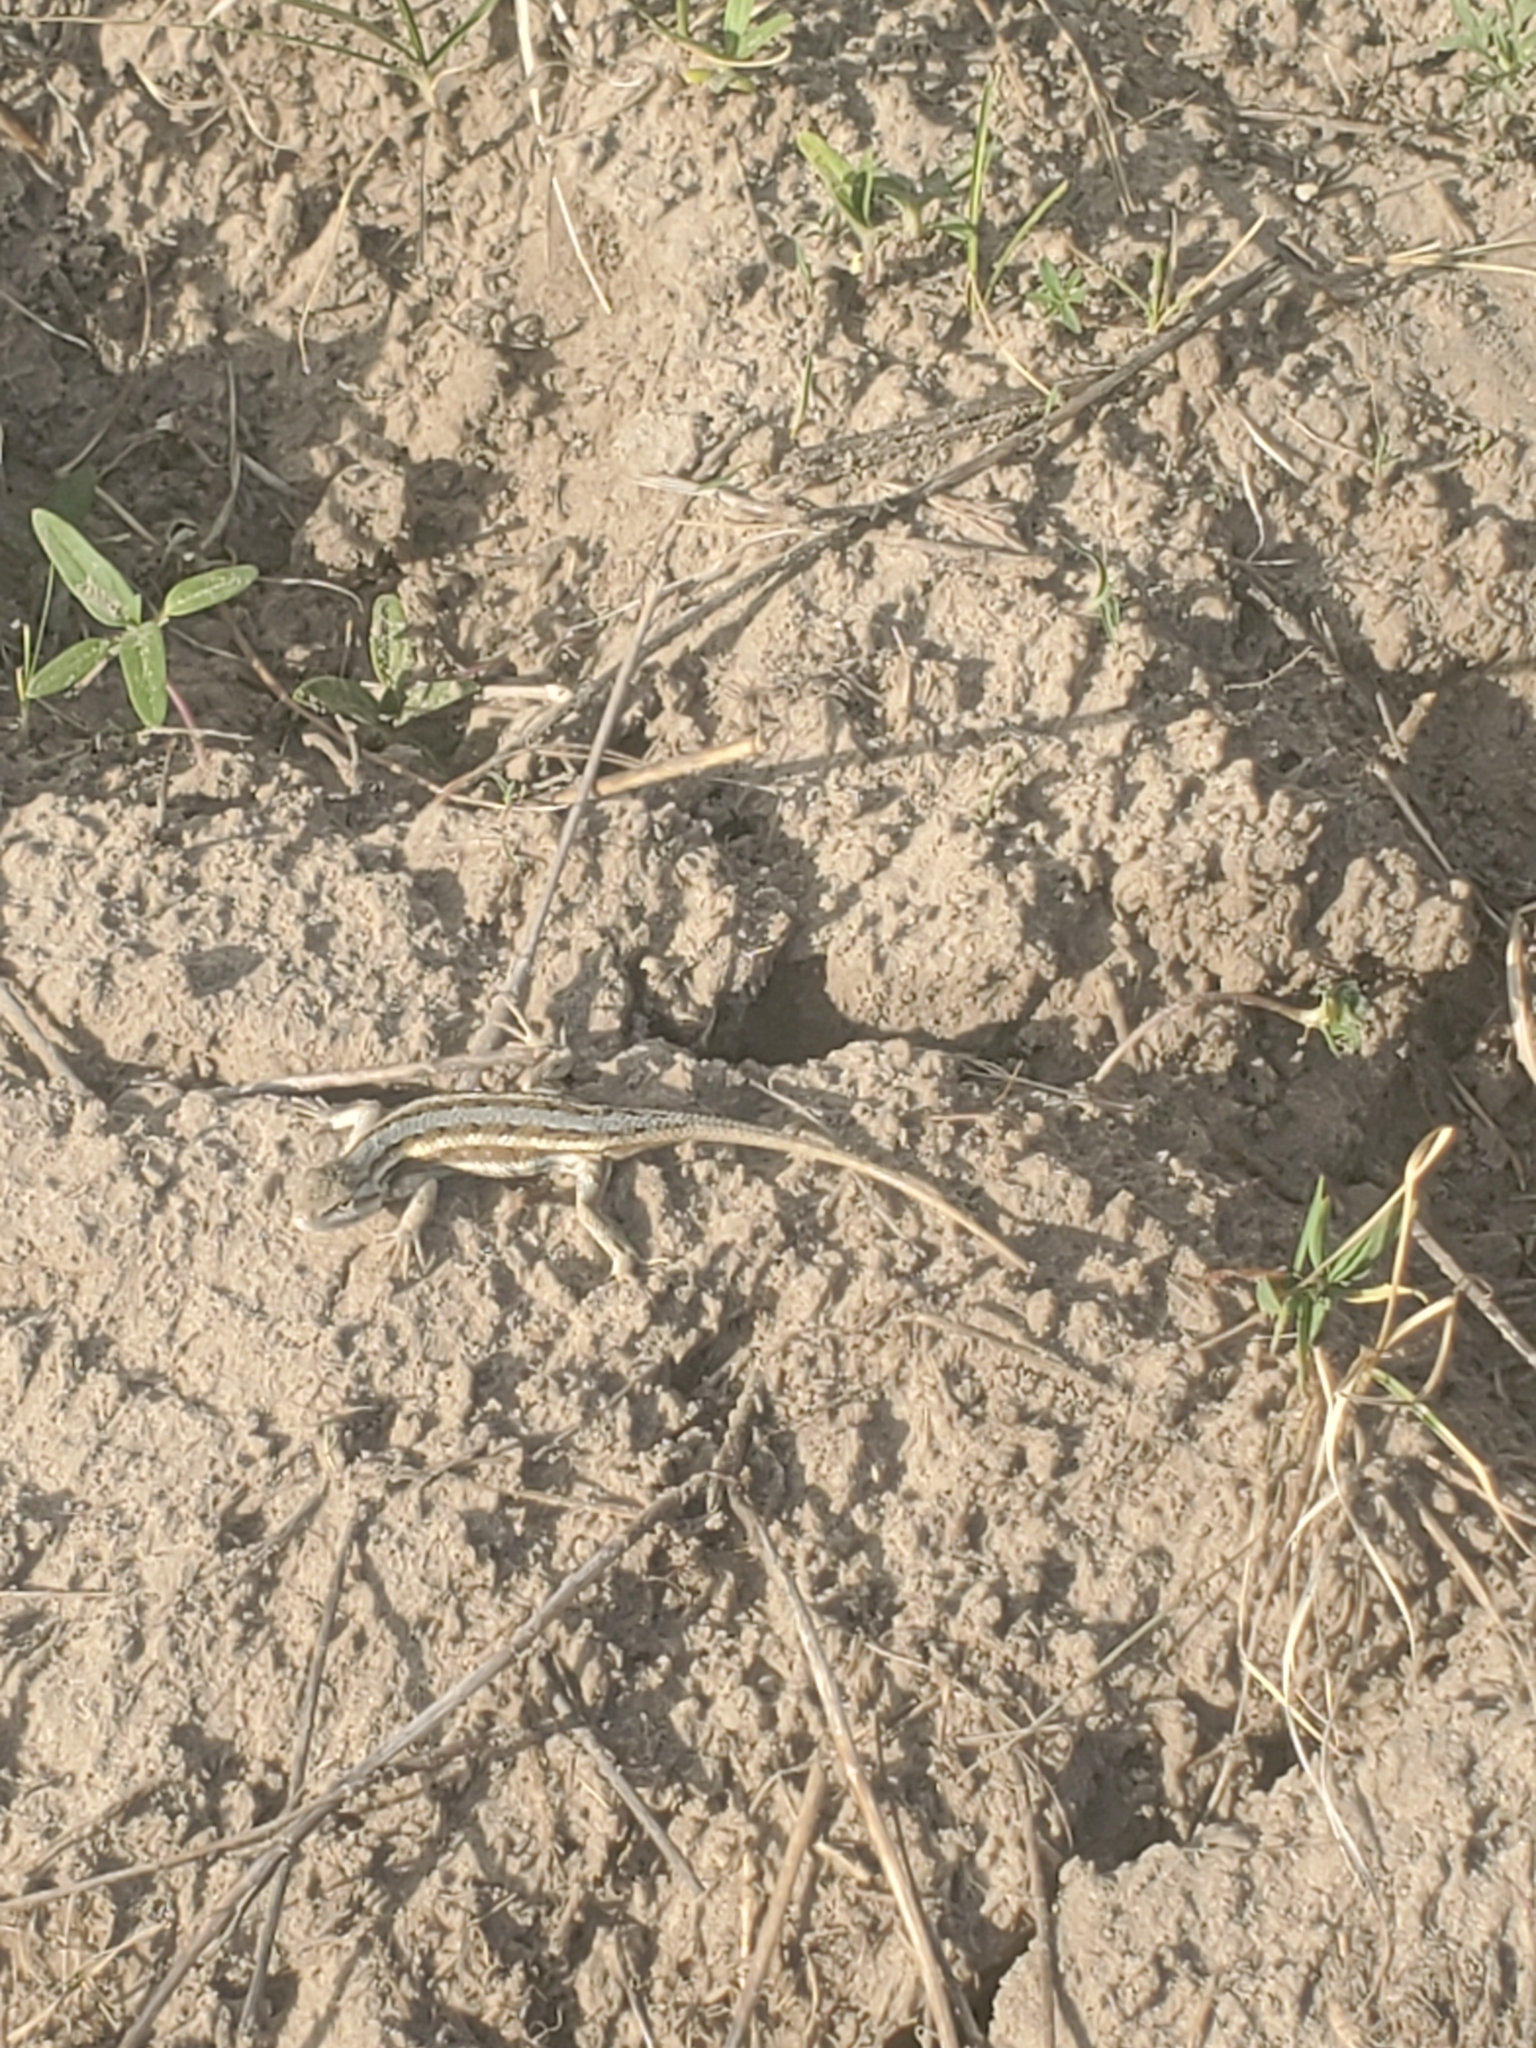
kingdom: Animalia
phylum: Chordata
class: Squamata
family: Phrynosomatidae
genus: Sceloporus
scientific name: Sceloporus consobrinus
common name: Southern prairie lizard
